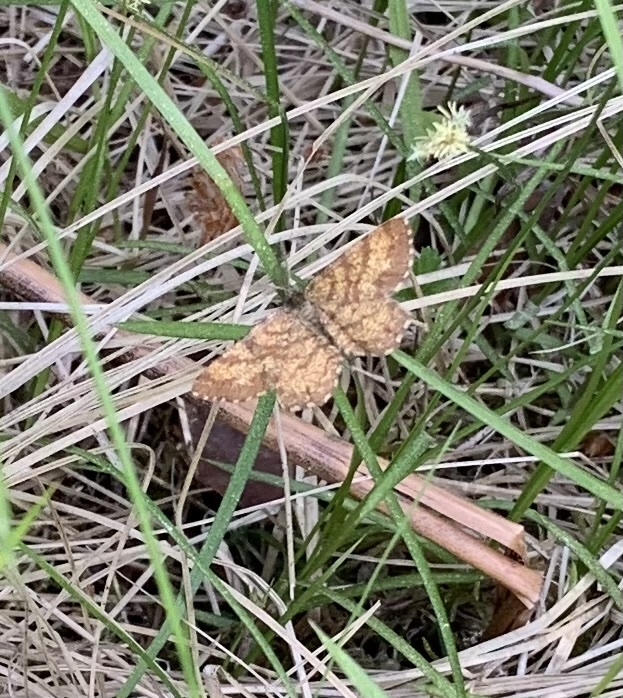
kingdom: Animalia
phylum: Arthropoda
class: Insecta
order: Lepidoptera
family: Geometridae
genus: Ematurga
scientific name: Ematurga atomaria
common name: Common heath
